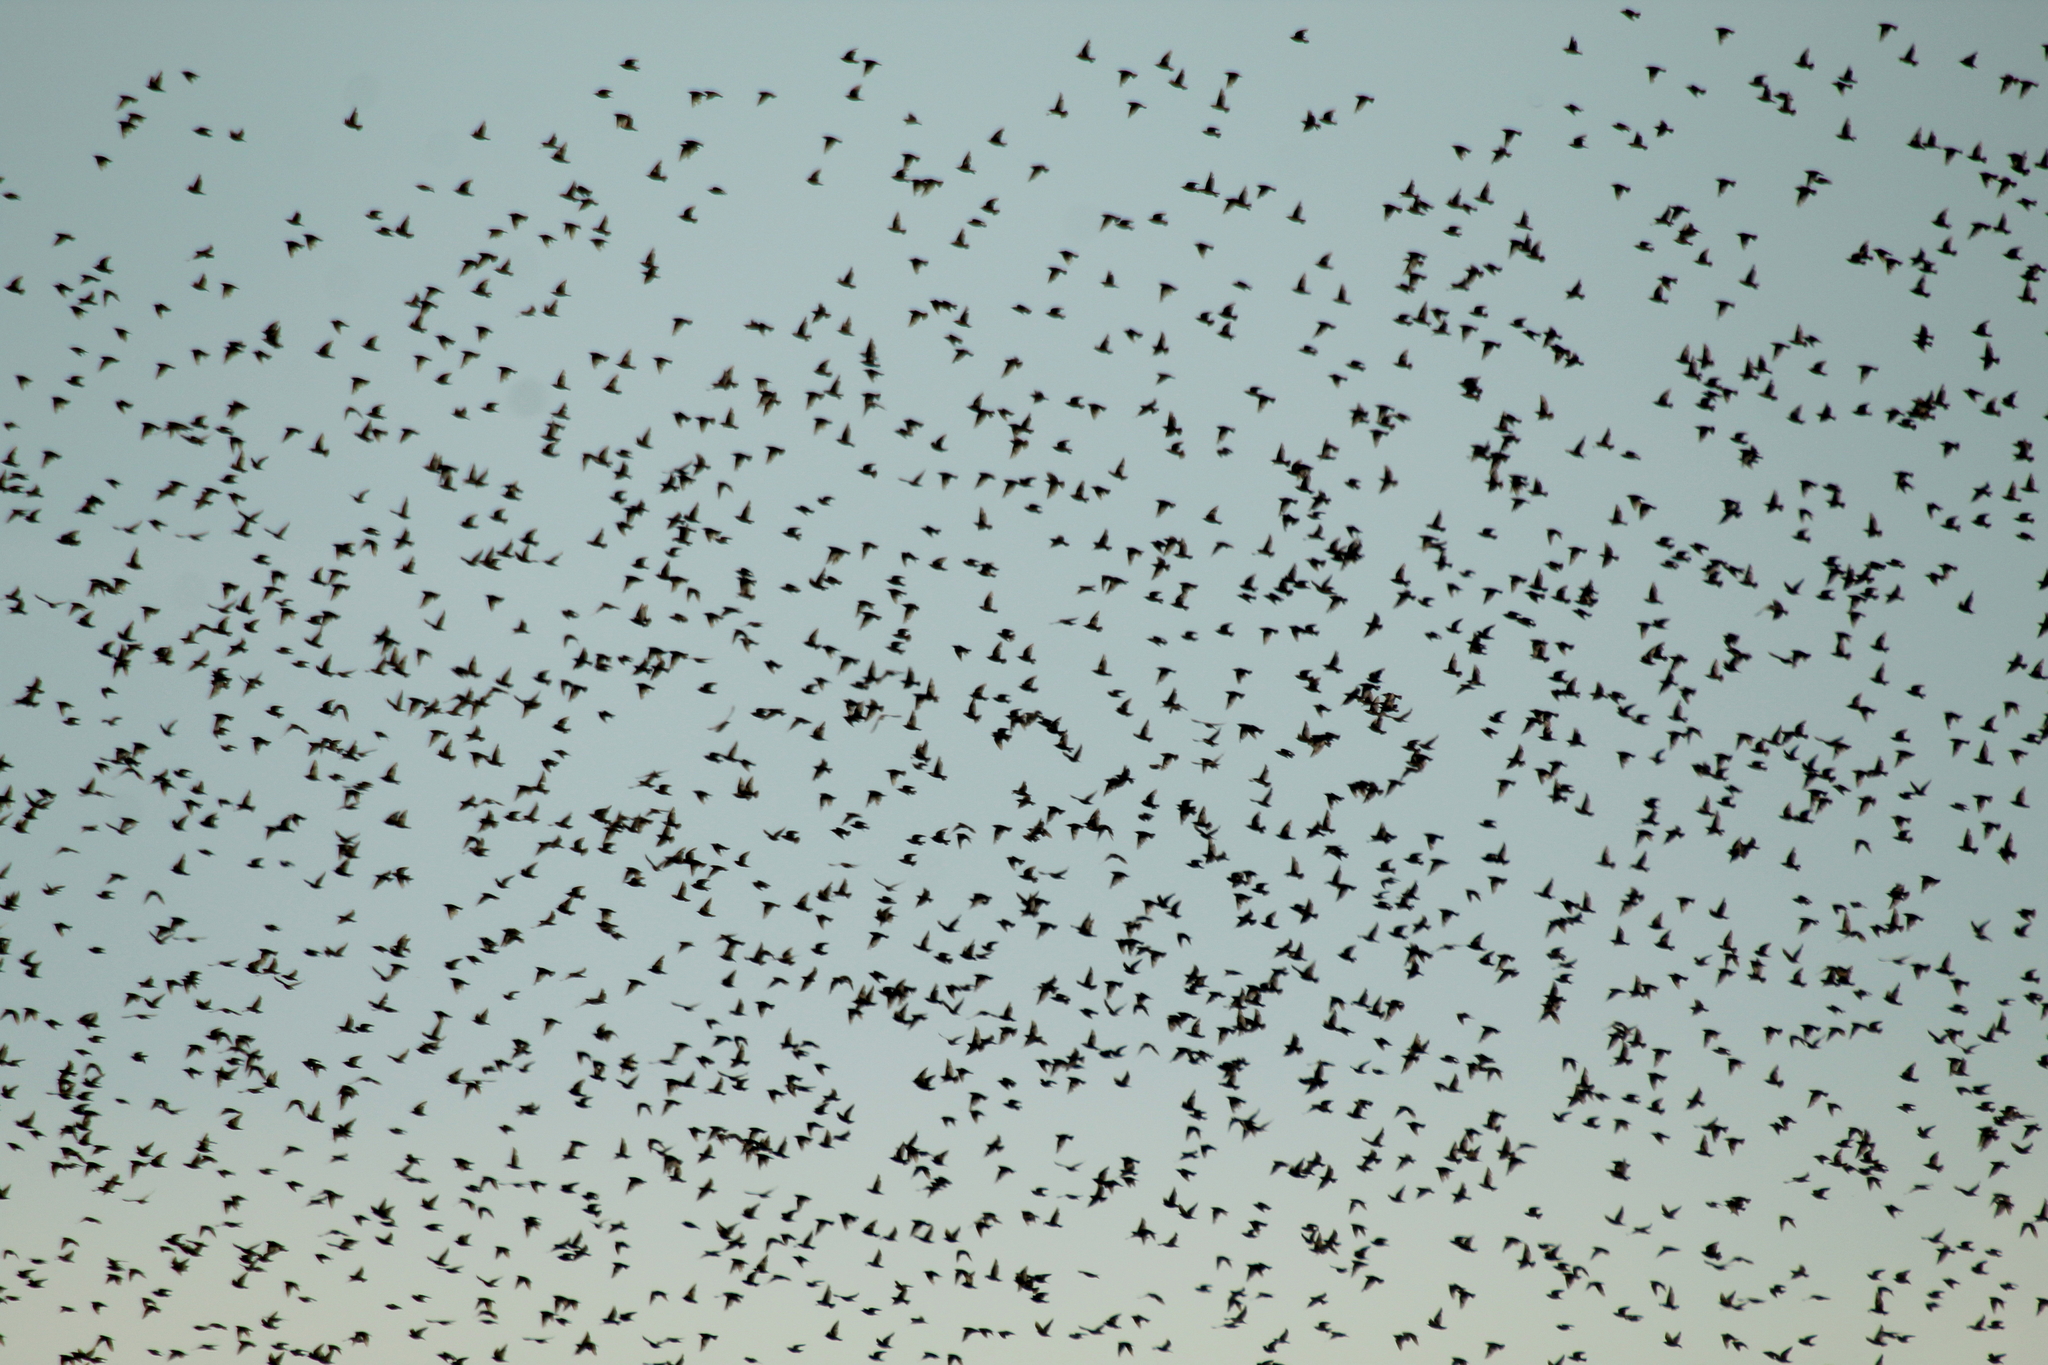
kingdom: Animalia
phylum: Chordata
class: Aves
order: Passeriformes
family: Sturnidae
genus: Sturnus
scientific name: Sturnus vulgaris
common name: Common starling
